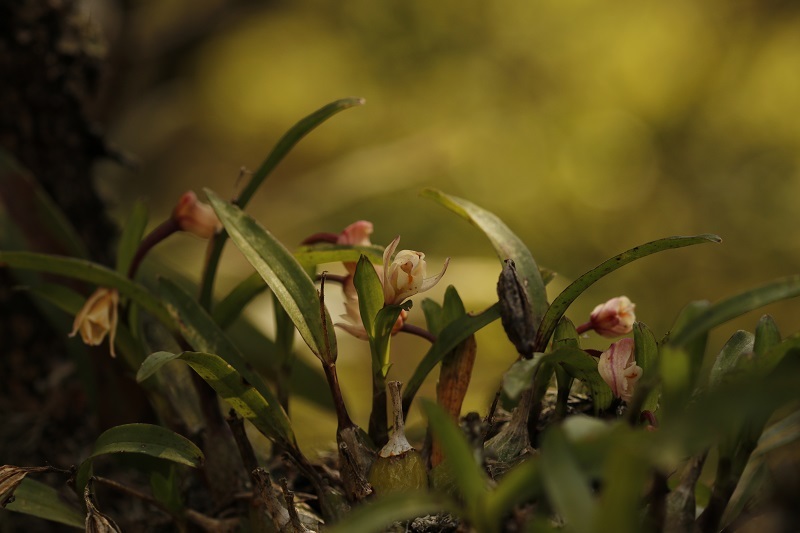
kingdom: Plantae
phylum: Tracheophyta
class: Liliopsida
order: Asparagales
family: Orchidaceae
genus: Polystachya
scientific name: Polystachya ottoniana
